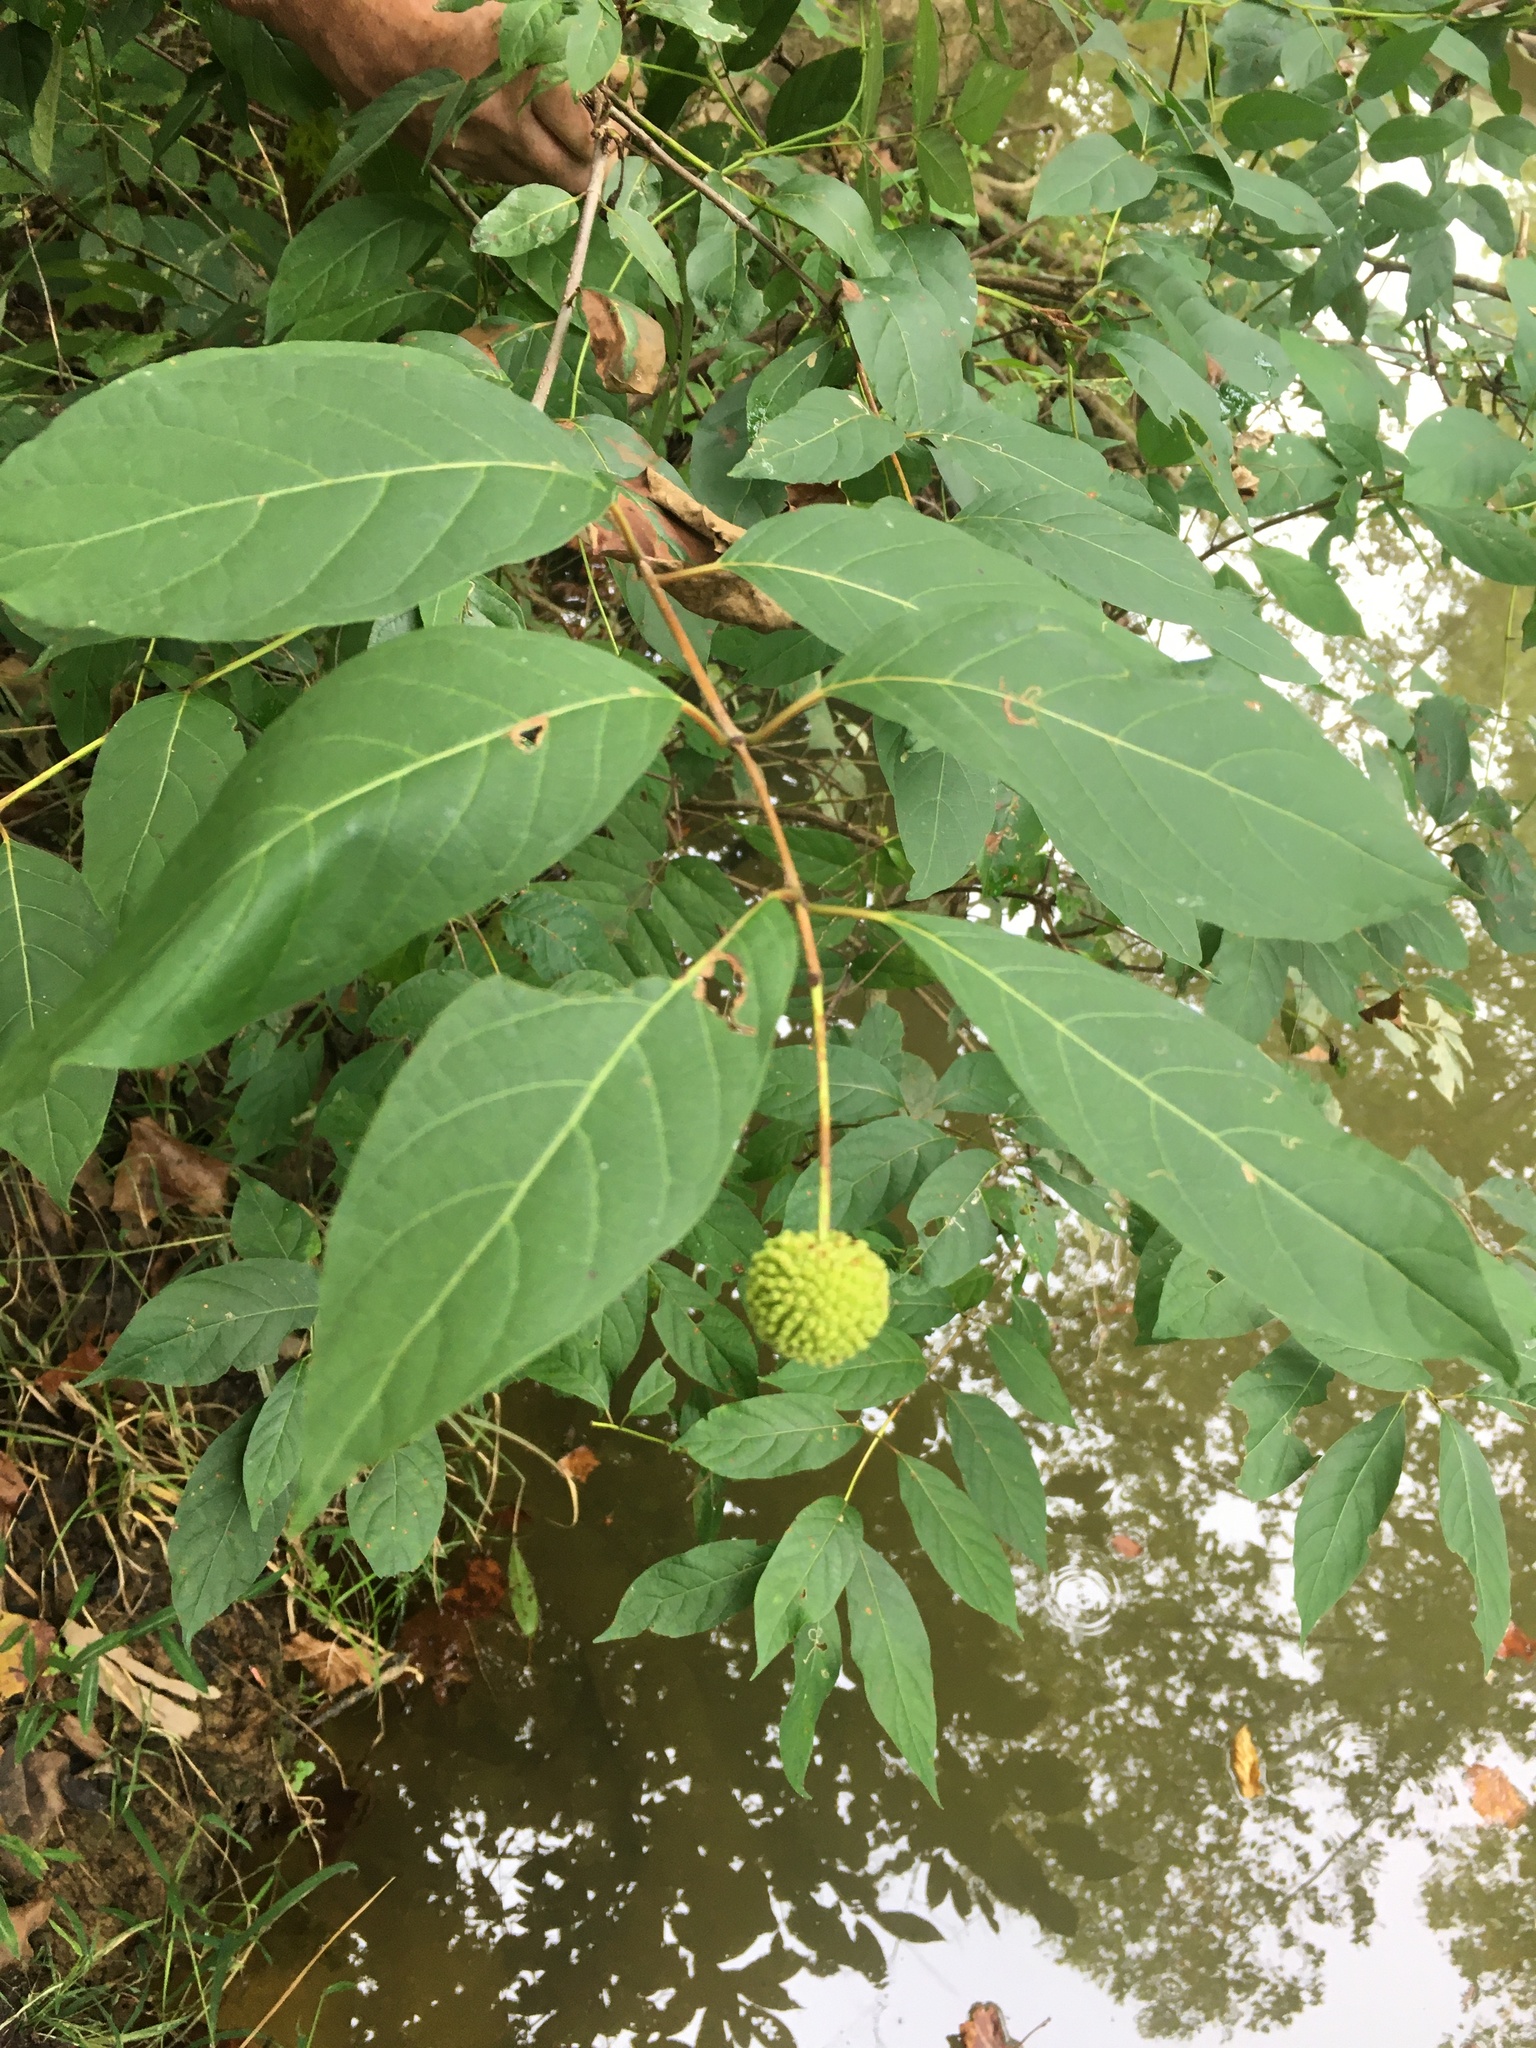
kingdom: Plantae
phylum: Tracheophyta
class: Magnoliopsida
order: Gentianales
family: Rubiaceae
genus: Cephalanthus
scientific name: Cephalanthus occidentalis
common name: Button-willow
